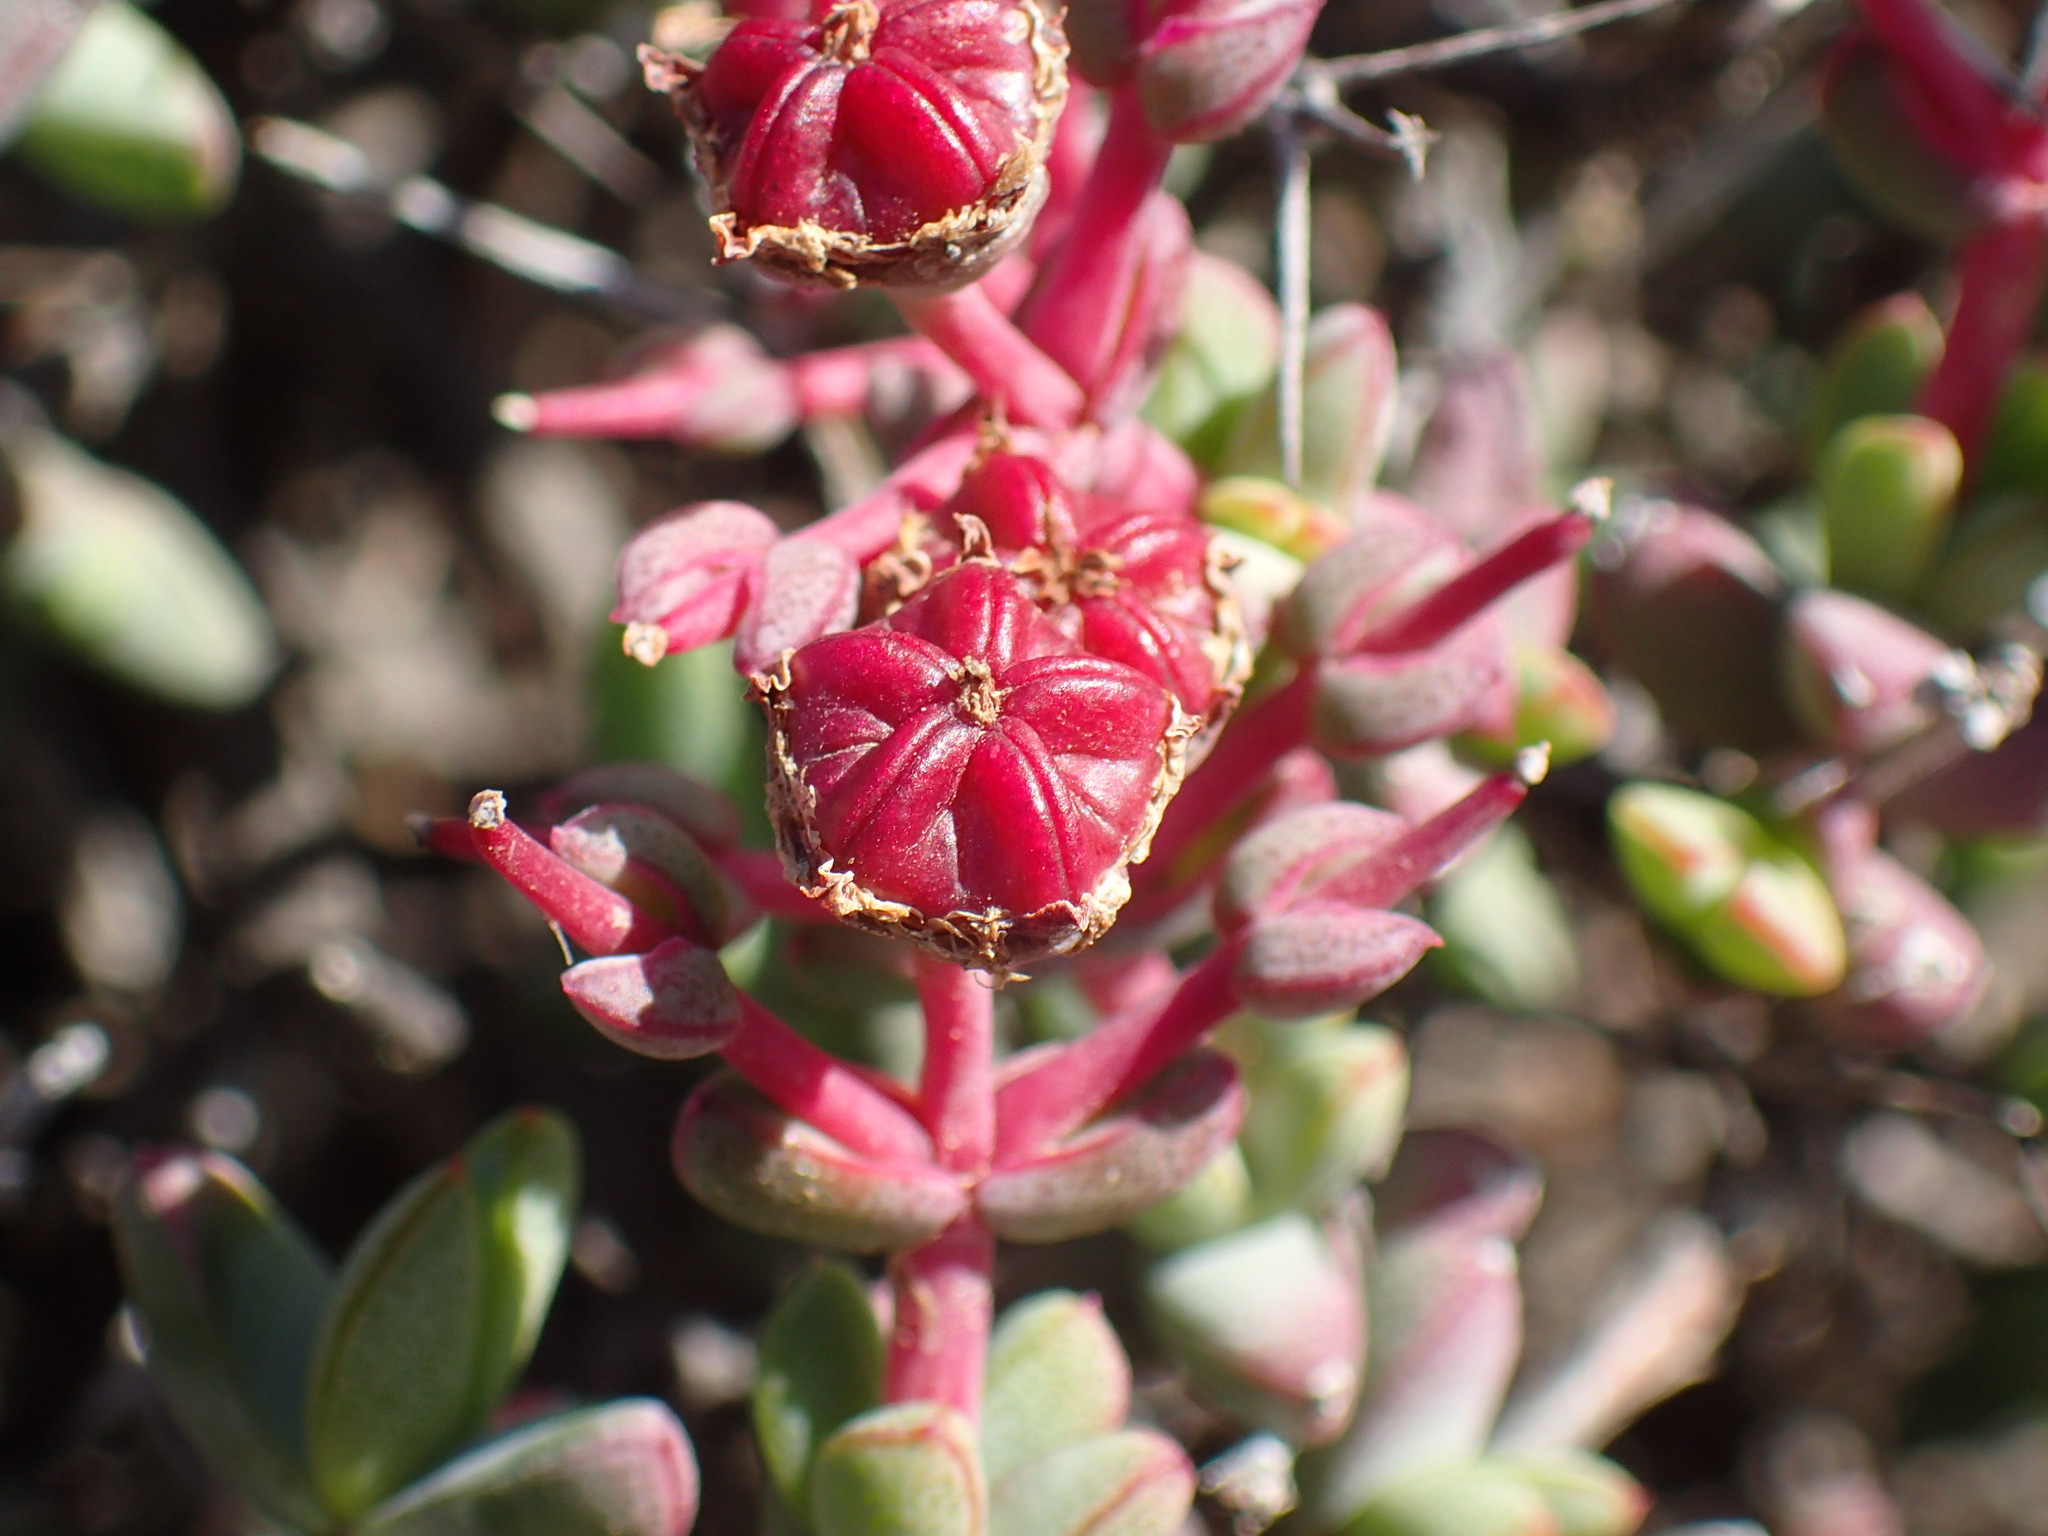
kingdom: Plantae
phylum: Tracheophyta
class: Magnoliopsida
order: Caryophyllales
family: Aizoaceae
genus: Ruschia
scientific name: Ruschia intricata
